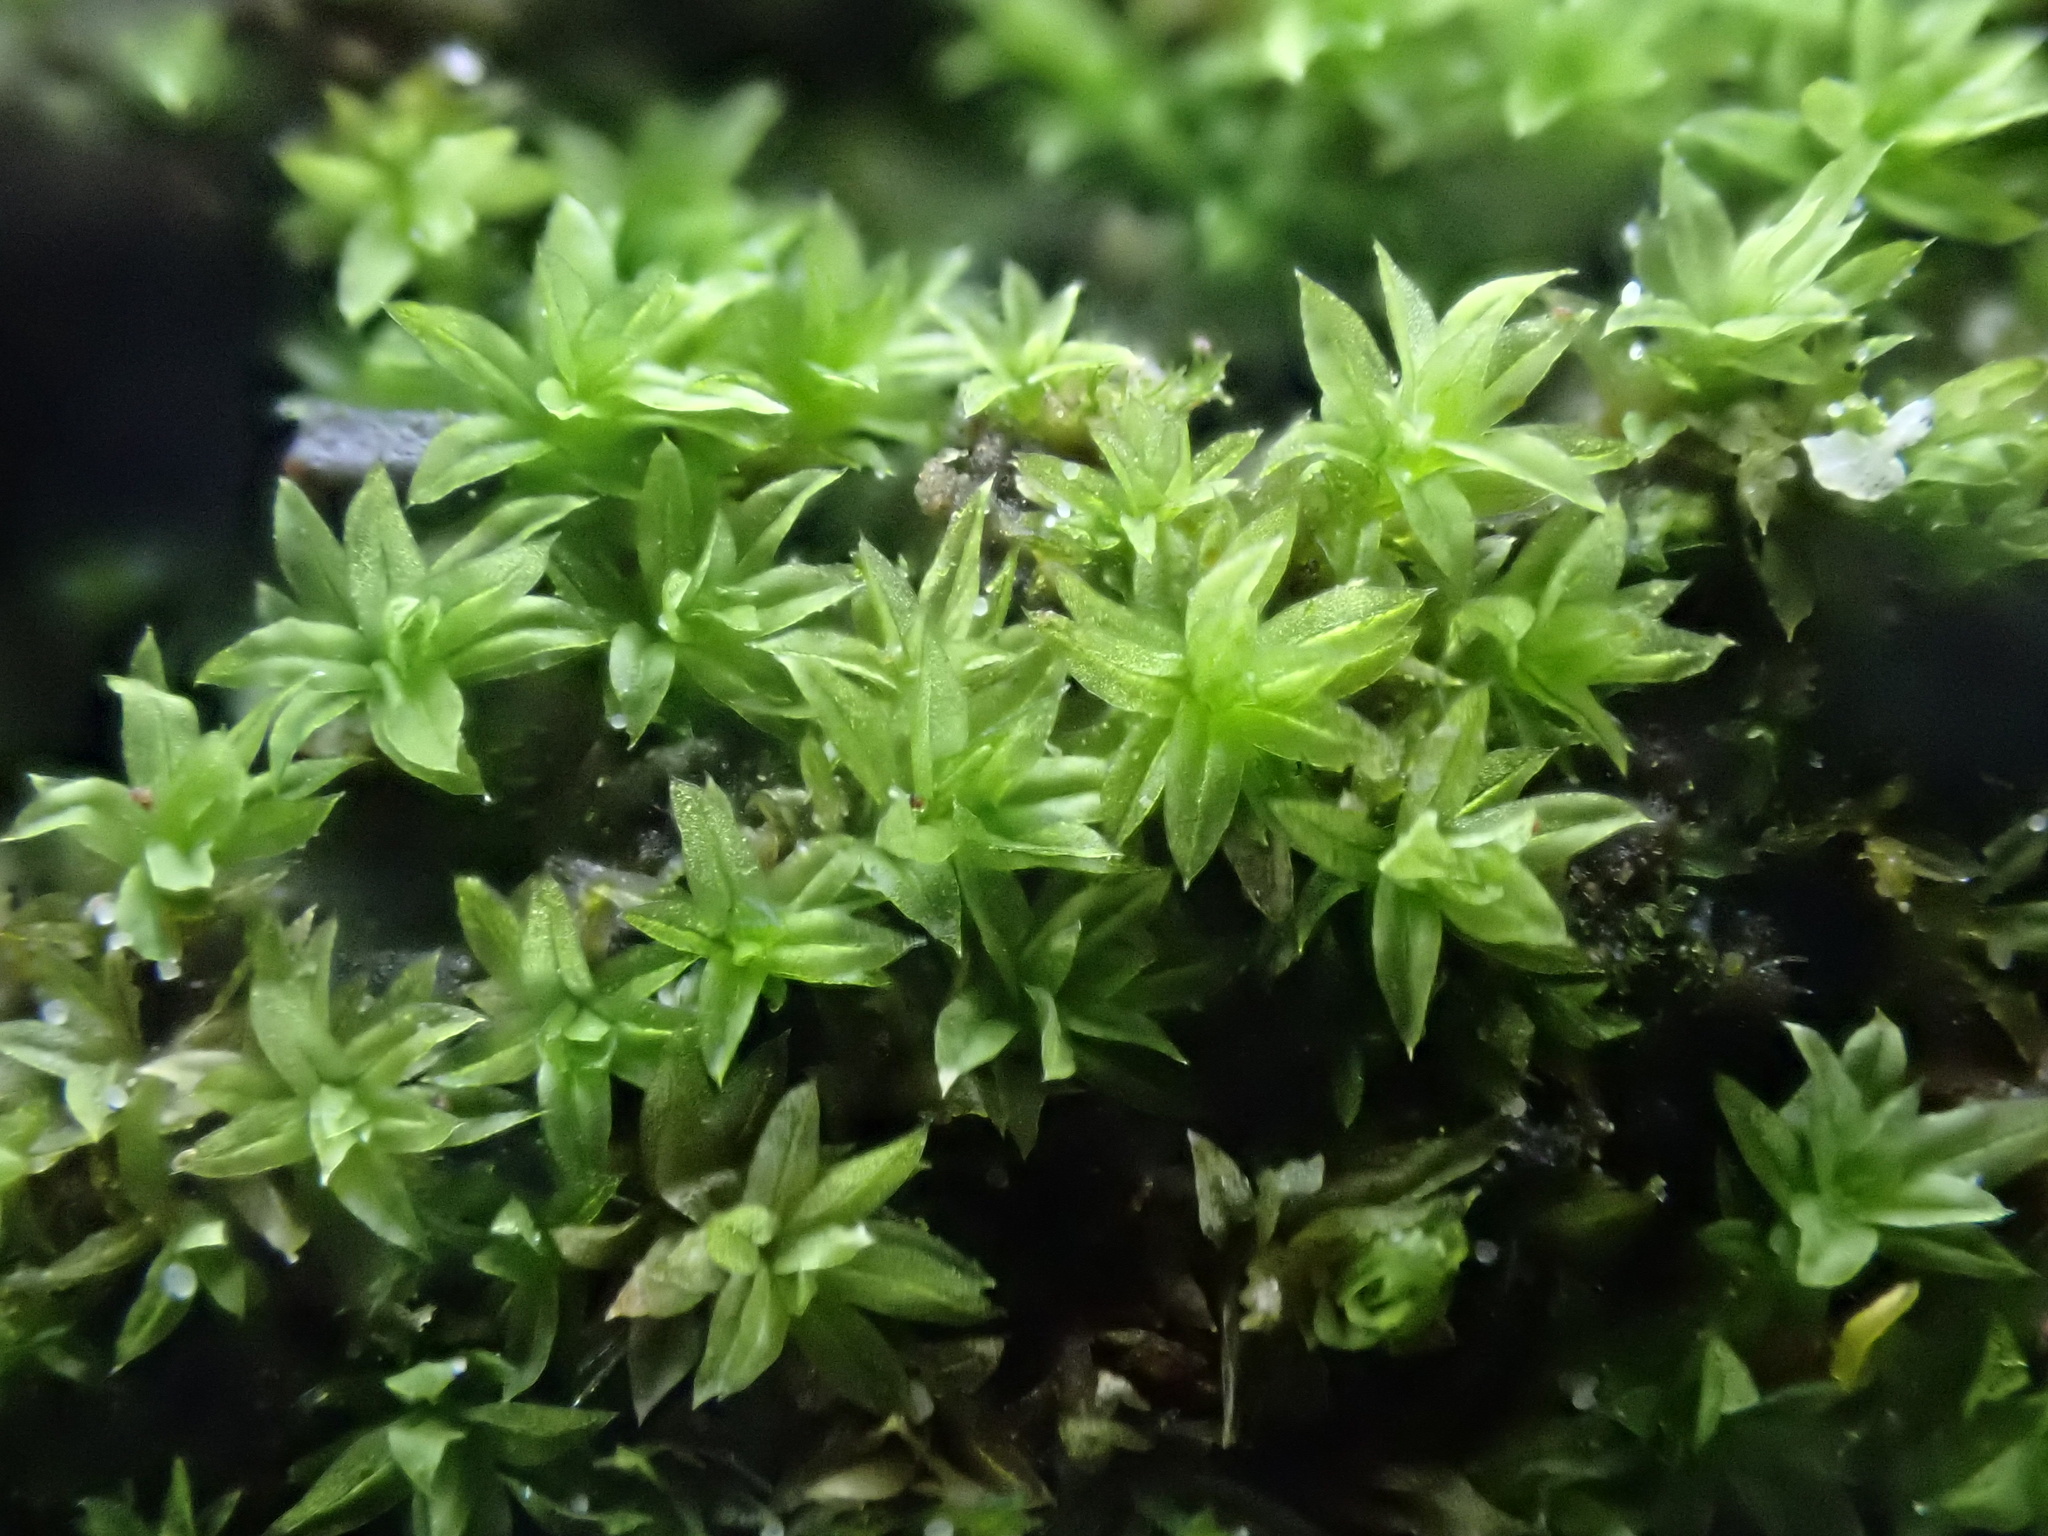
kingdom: Plantae
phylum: Bryophyta
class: Bryopsida
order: Orthotrichales
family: Orthotrichaceae
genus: Zygodon
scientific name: Zygodon viridissimus
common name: Green yoke moss
